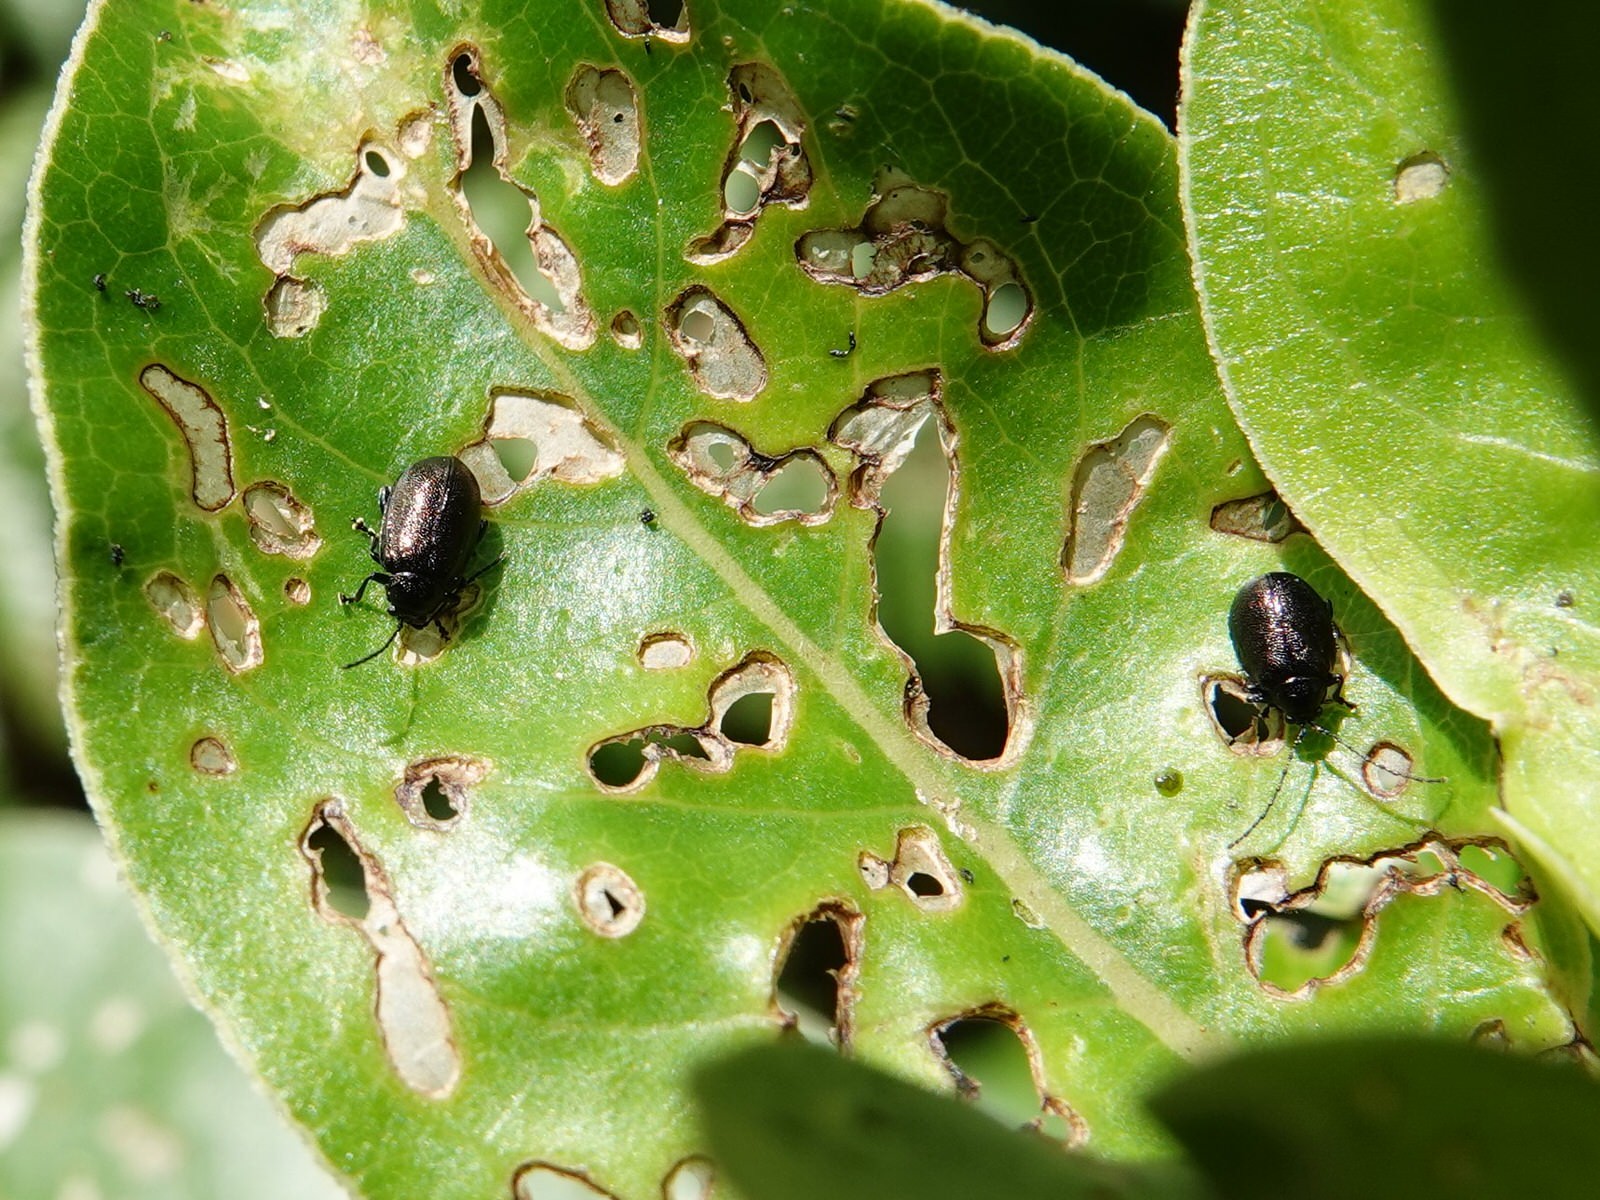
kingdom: Animalia
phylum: Arthropoda
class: Insecta
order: Coleoptera
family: Chrysomelidae
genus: Pleuraltica
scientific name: Pleuraltica cyanea
